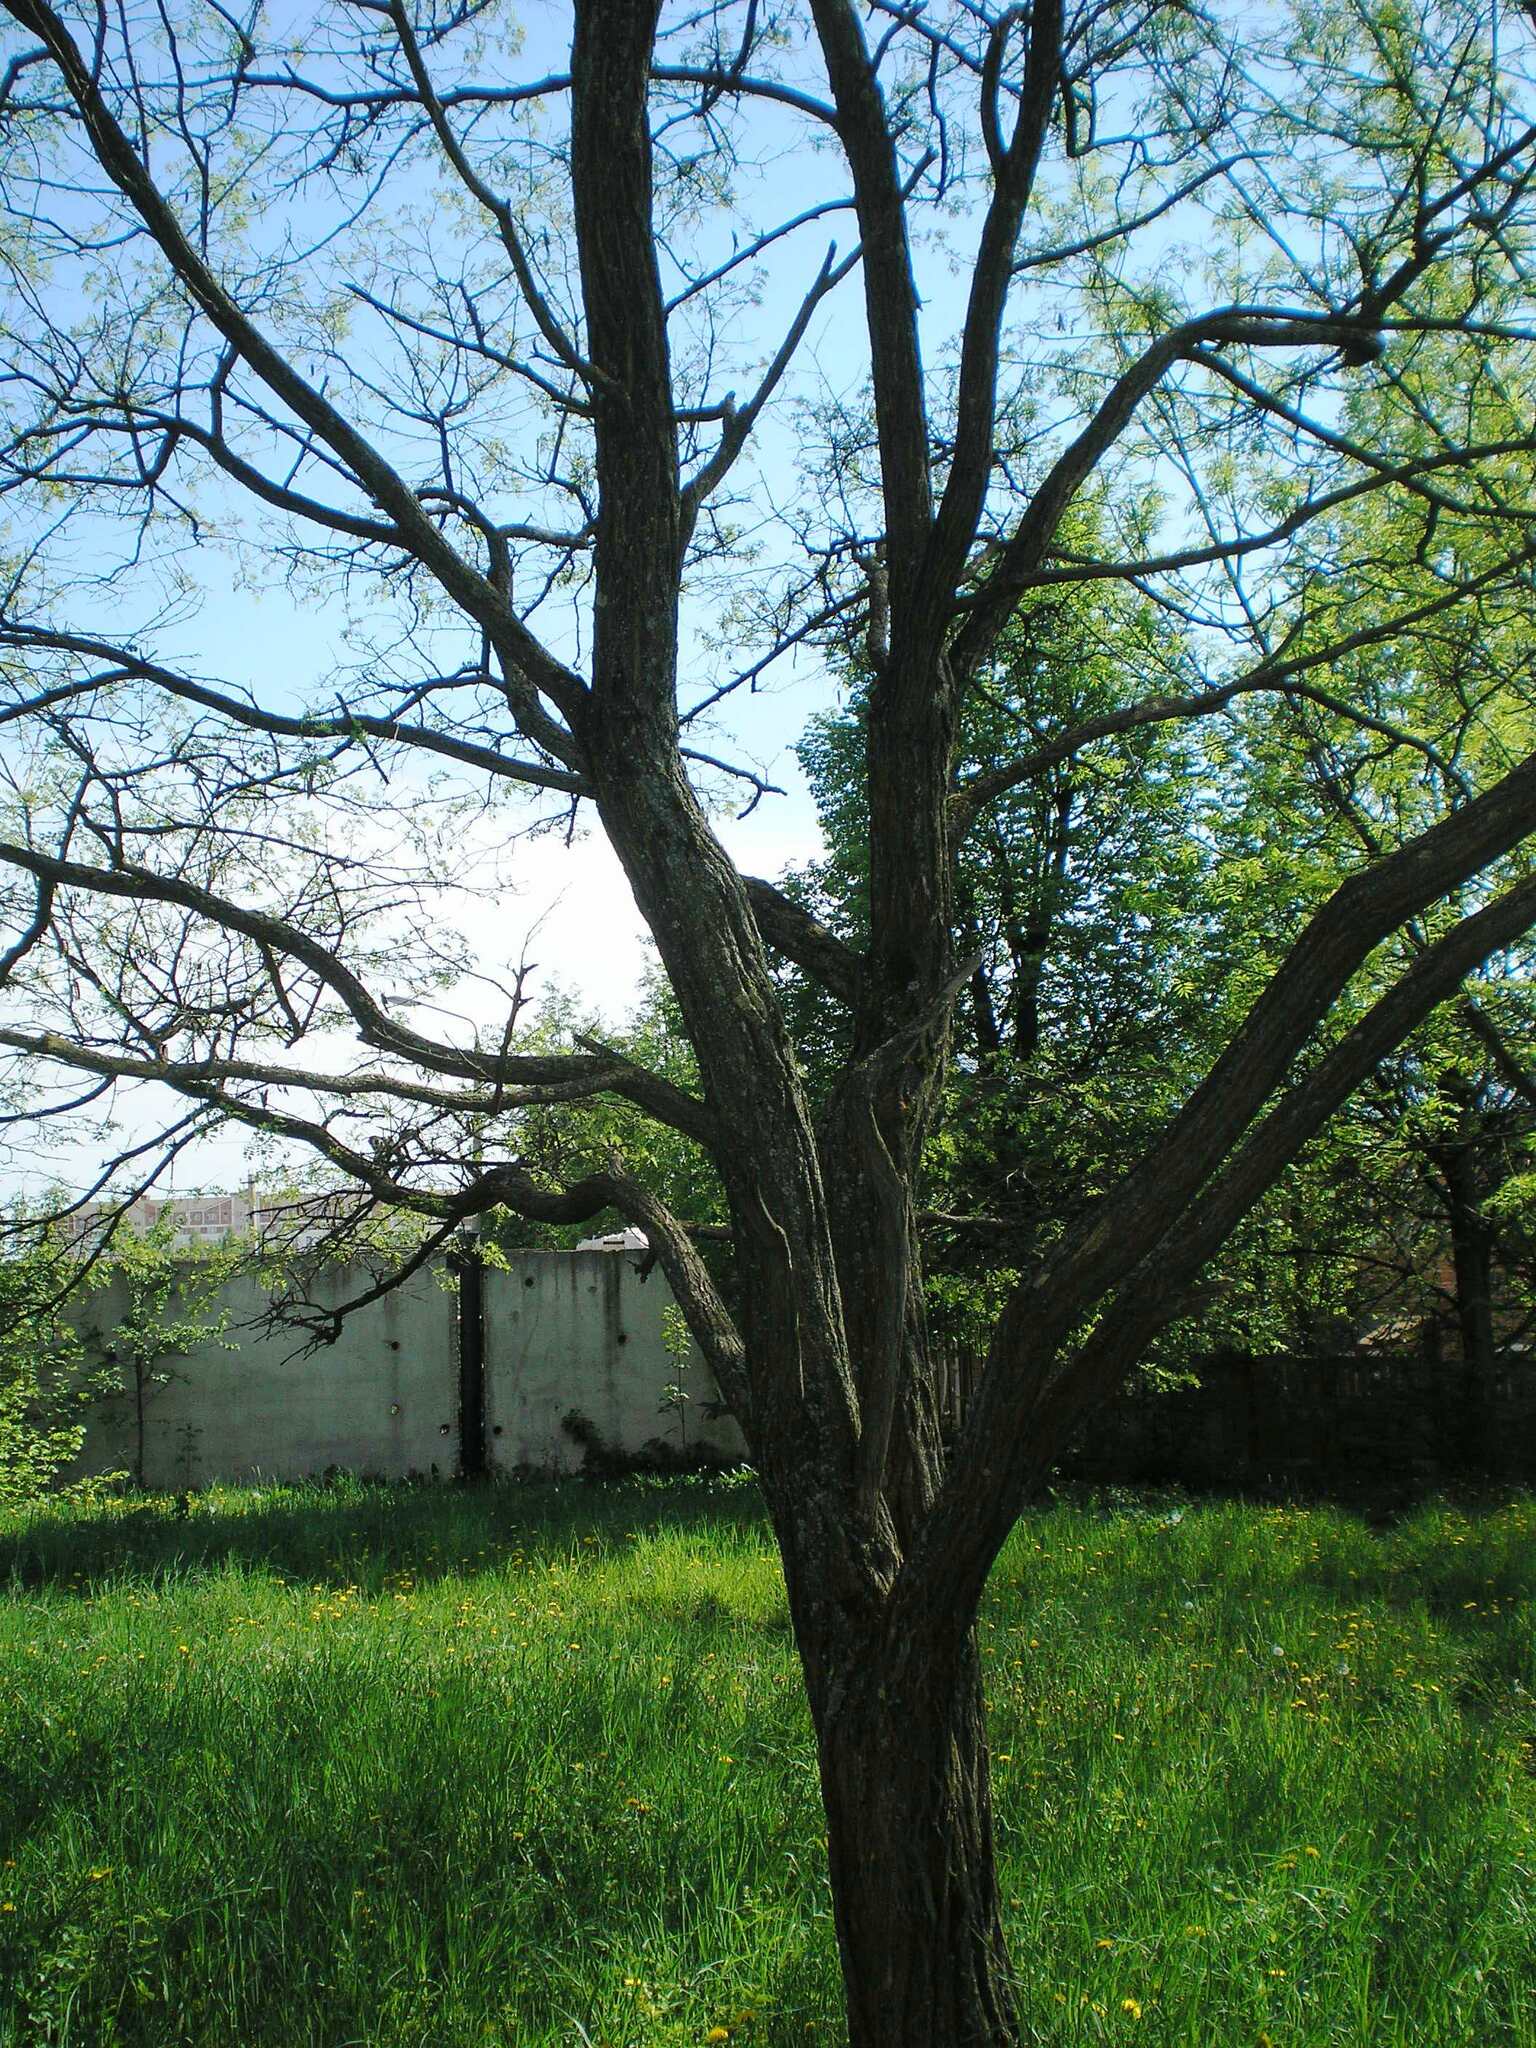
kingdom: Plantae
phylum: Tracheophyta
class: Magnoliopsida
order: Fabales
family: Fabaceae
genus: Robinia
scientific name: Robinia pseudoacacia
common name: Black locust
